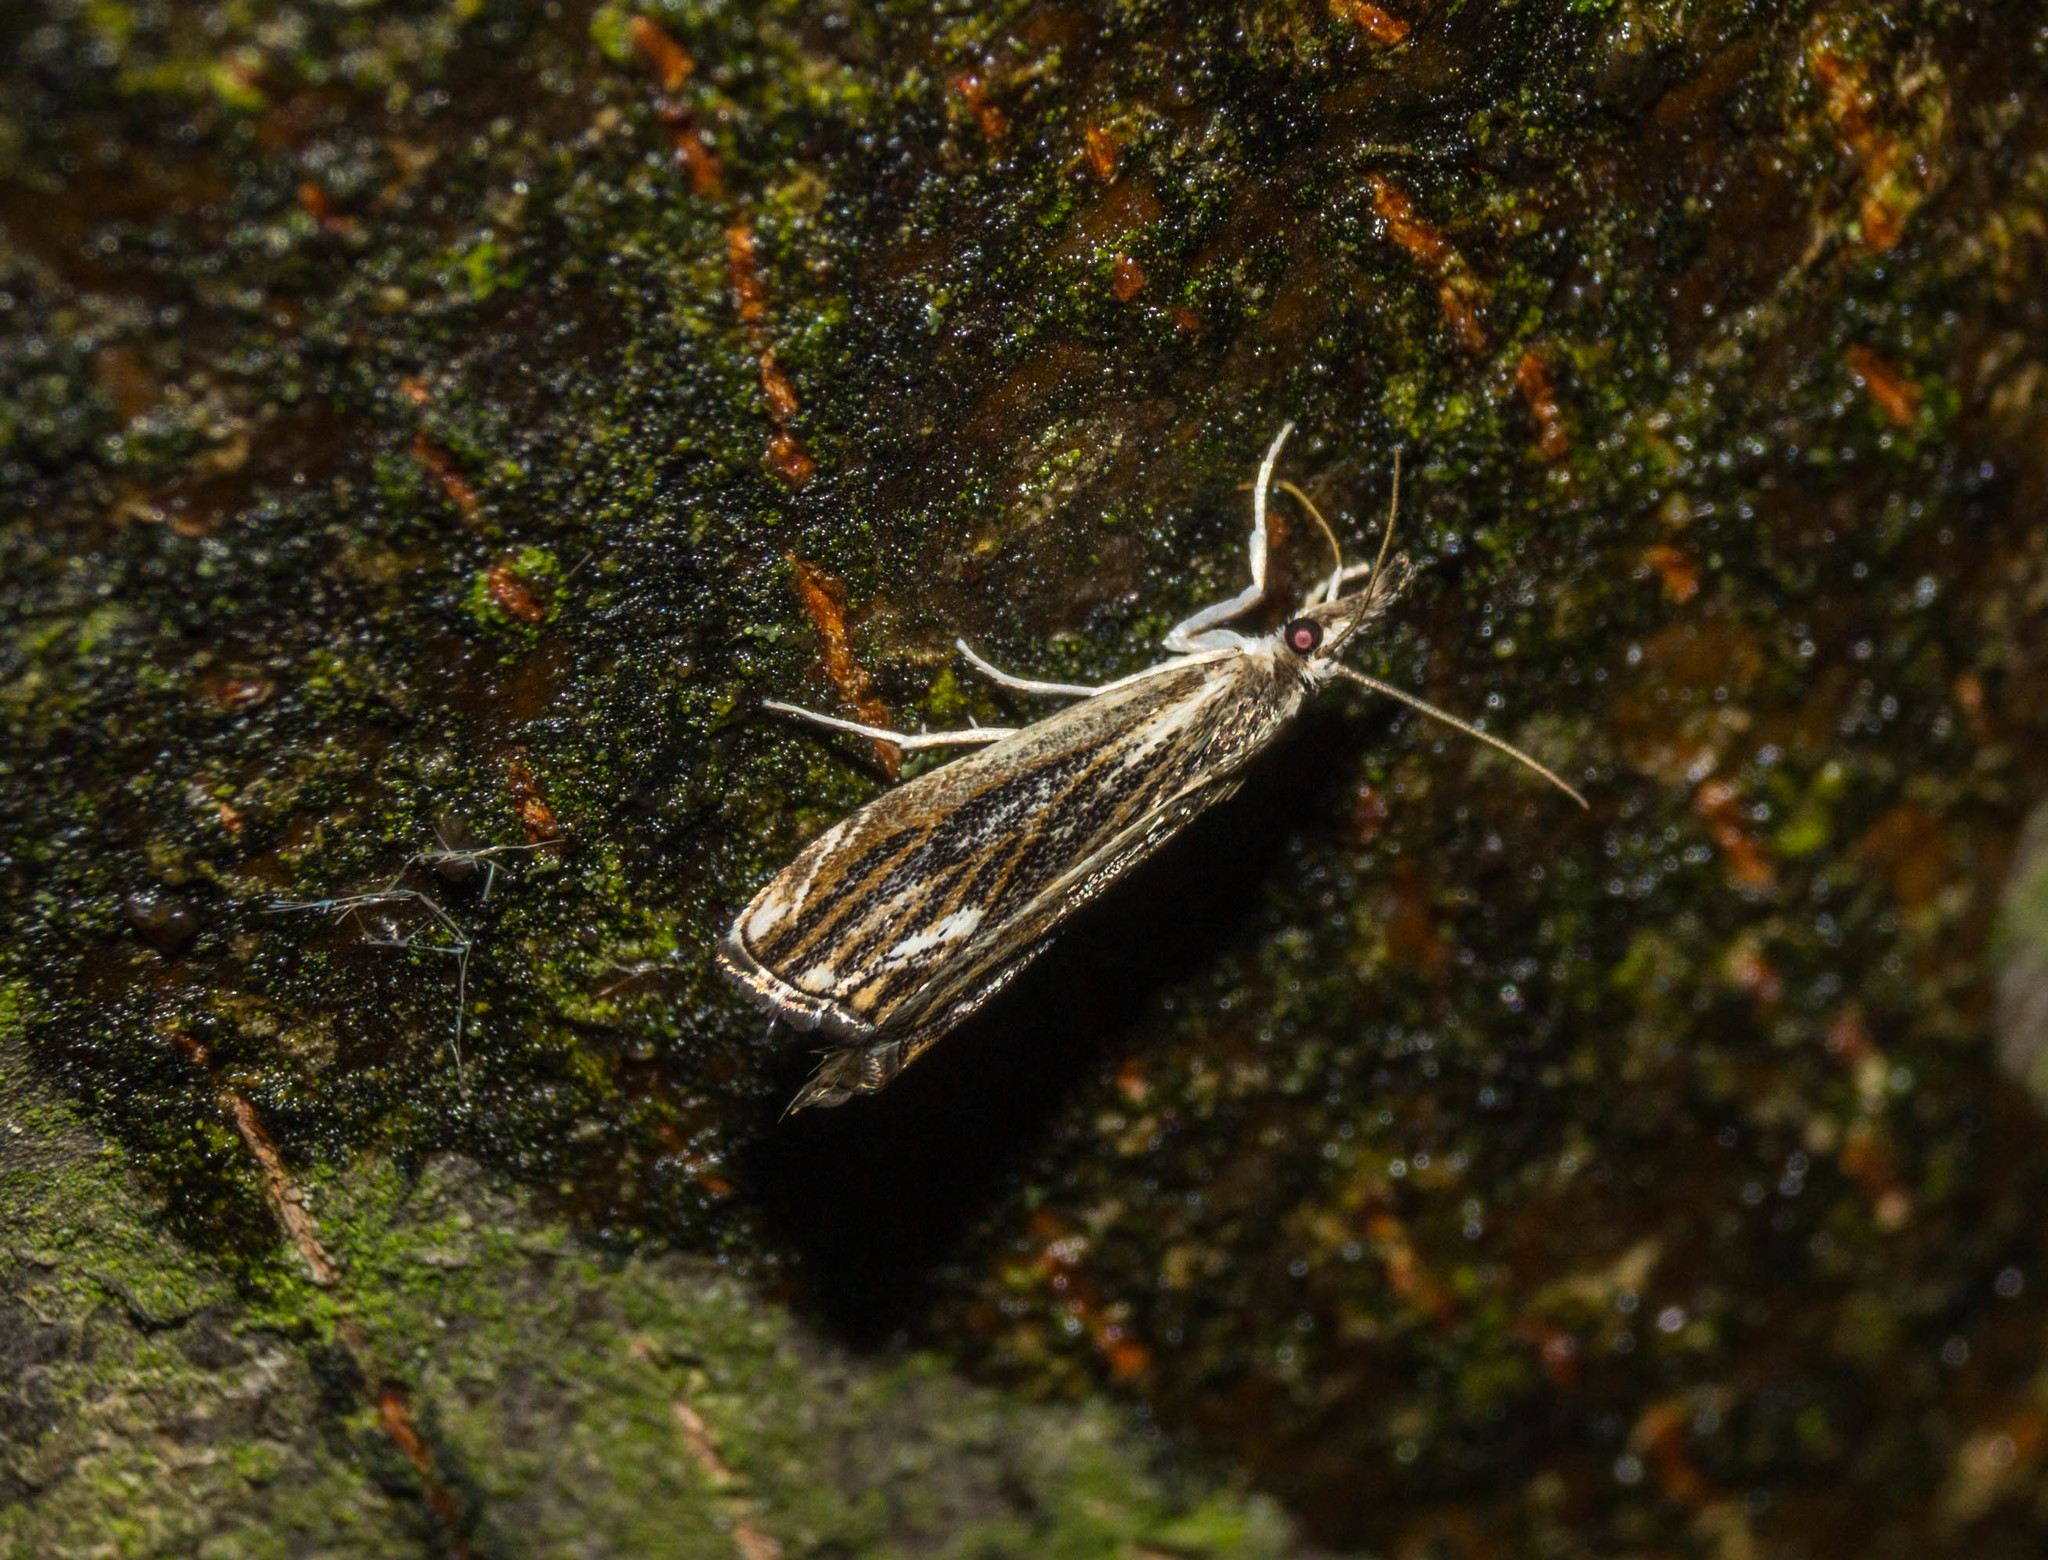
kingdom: Animalia
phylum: Arthropoda
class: Insecta
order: Lepidoptera
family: Crambidae
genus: Catoptria
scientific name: Catoptria verellus
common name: Marbled grass-veneer
